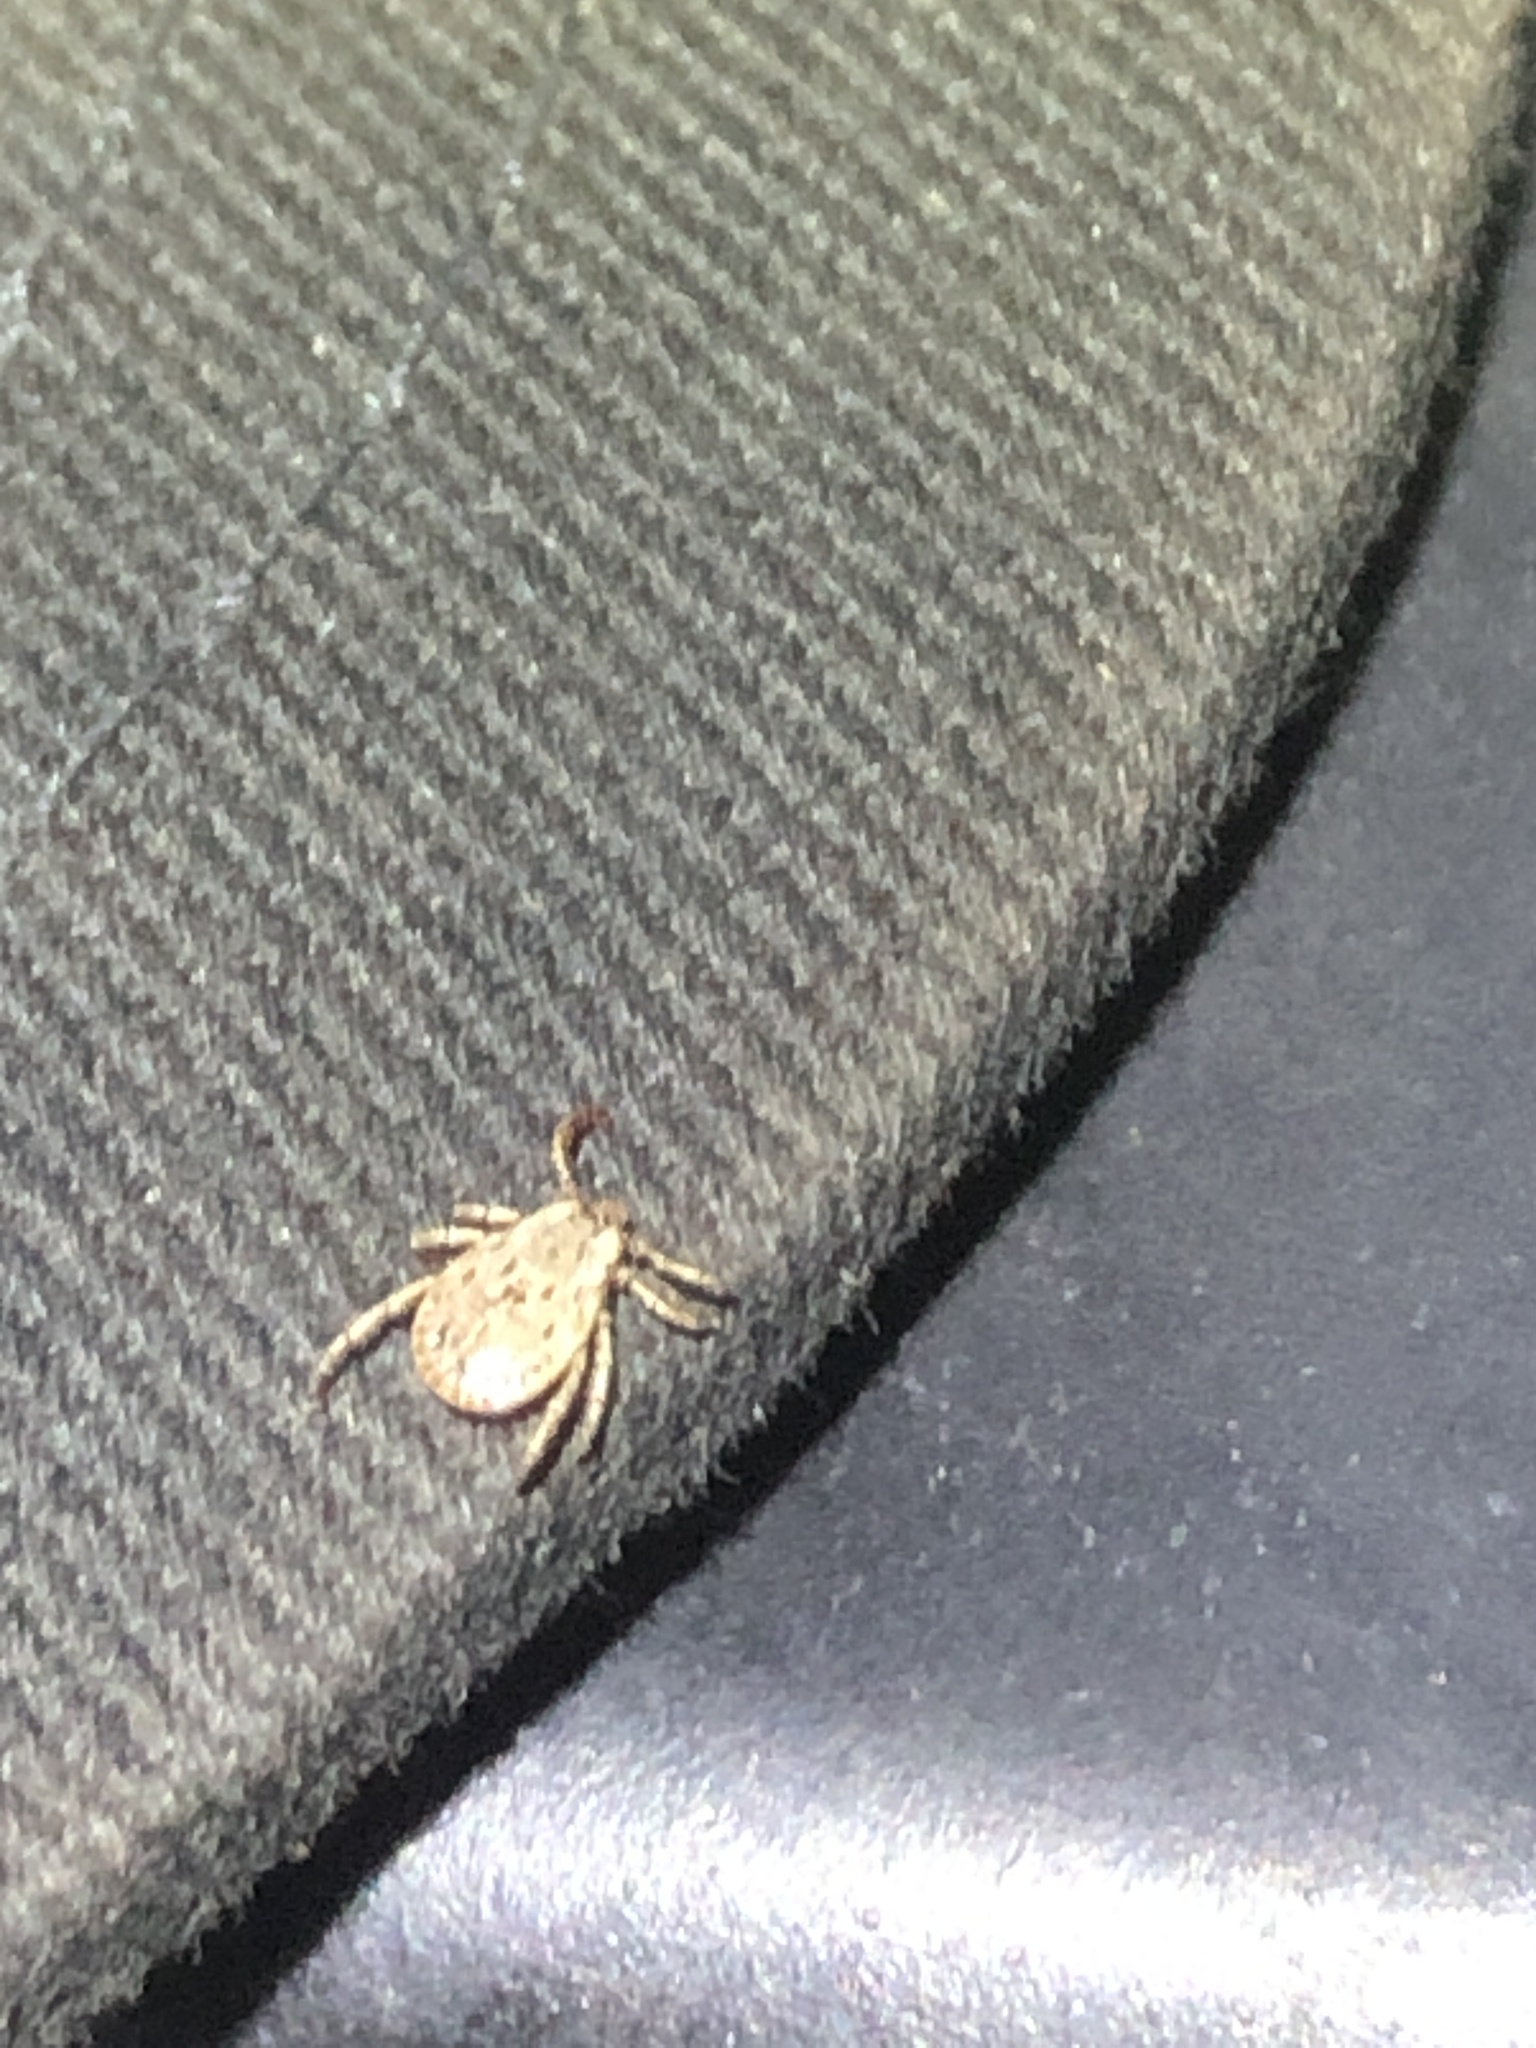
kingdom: Animalia
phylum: Arthropoda
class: Arachnida
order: Ixodida
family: Ixodidae
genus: Dermacentor
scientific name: Dermacentor occidentalis
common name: Net tick
